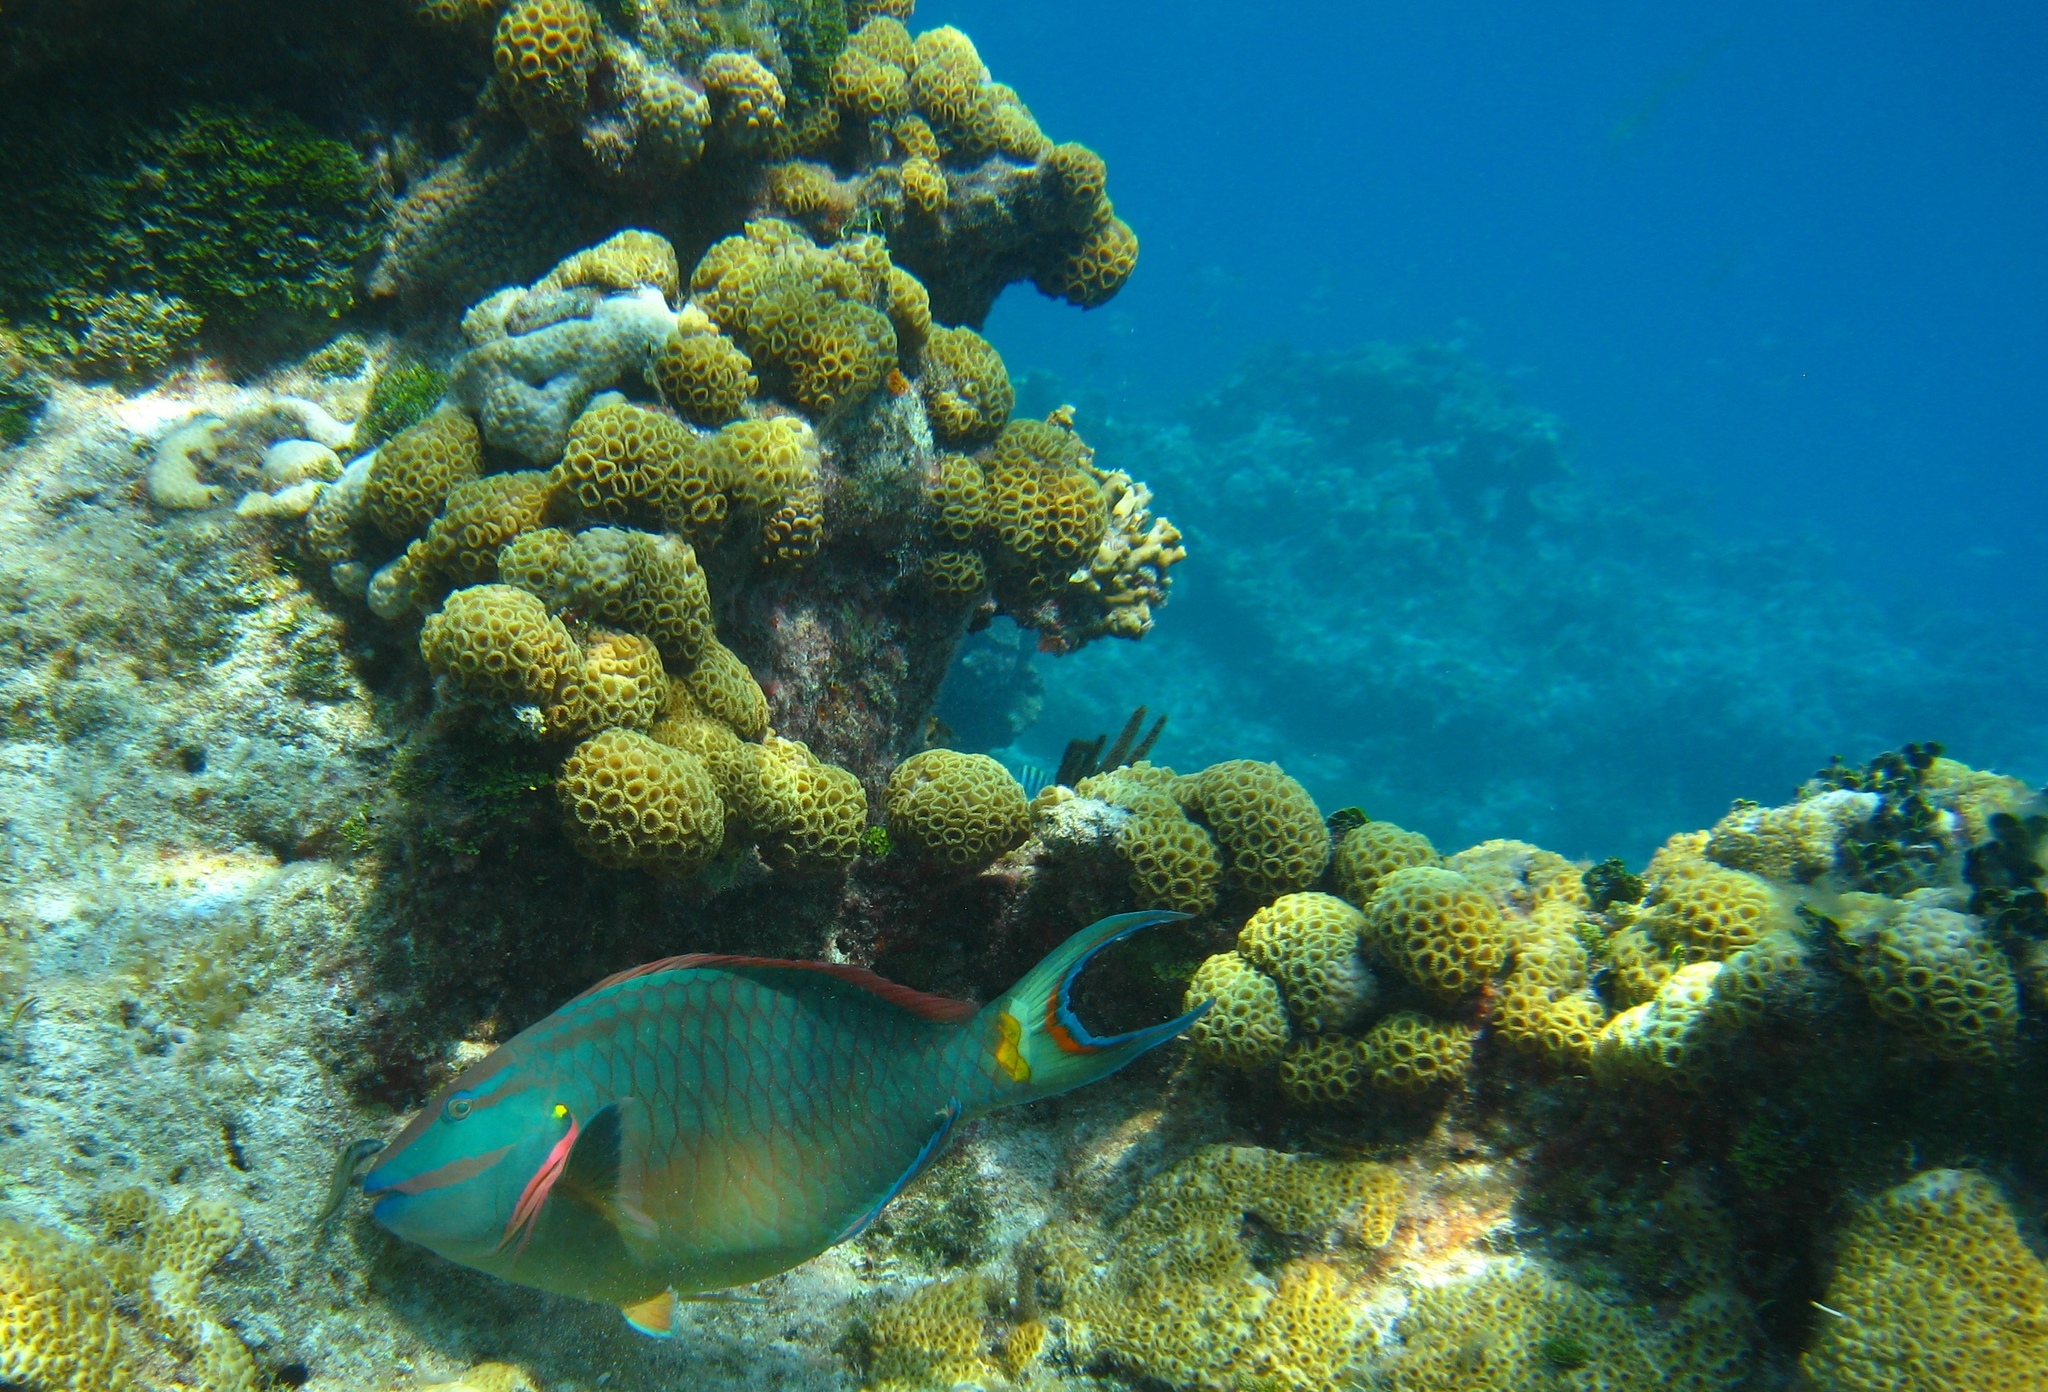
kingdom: Animalia
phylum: Cnidaria
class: Anthozoa
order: Zoantharia
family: Sphenopidae
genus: Palythoa
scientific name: Palythoa caribaeorum
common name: Encrusting colonial anemone
